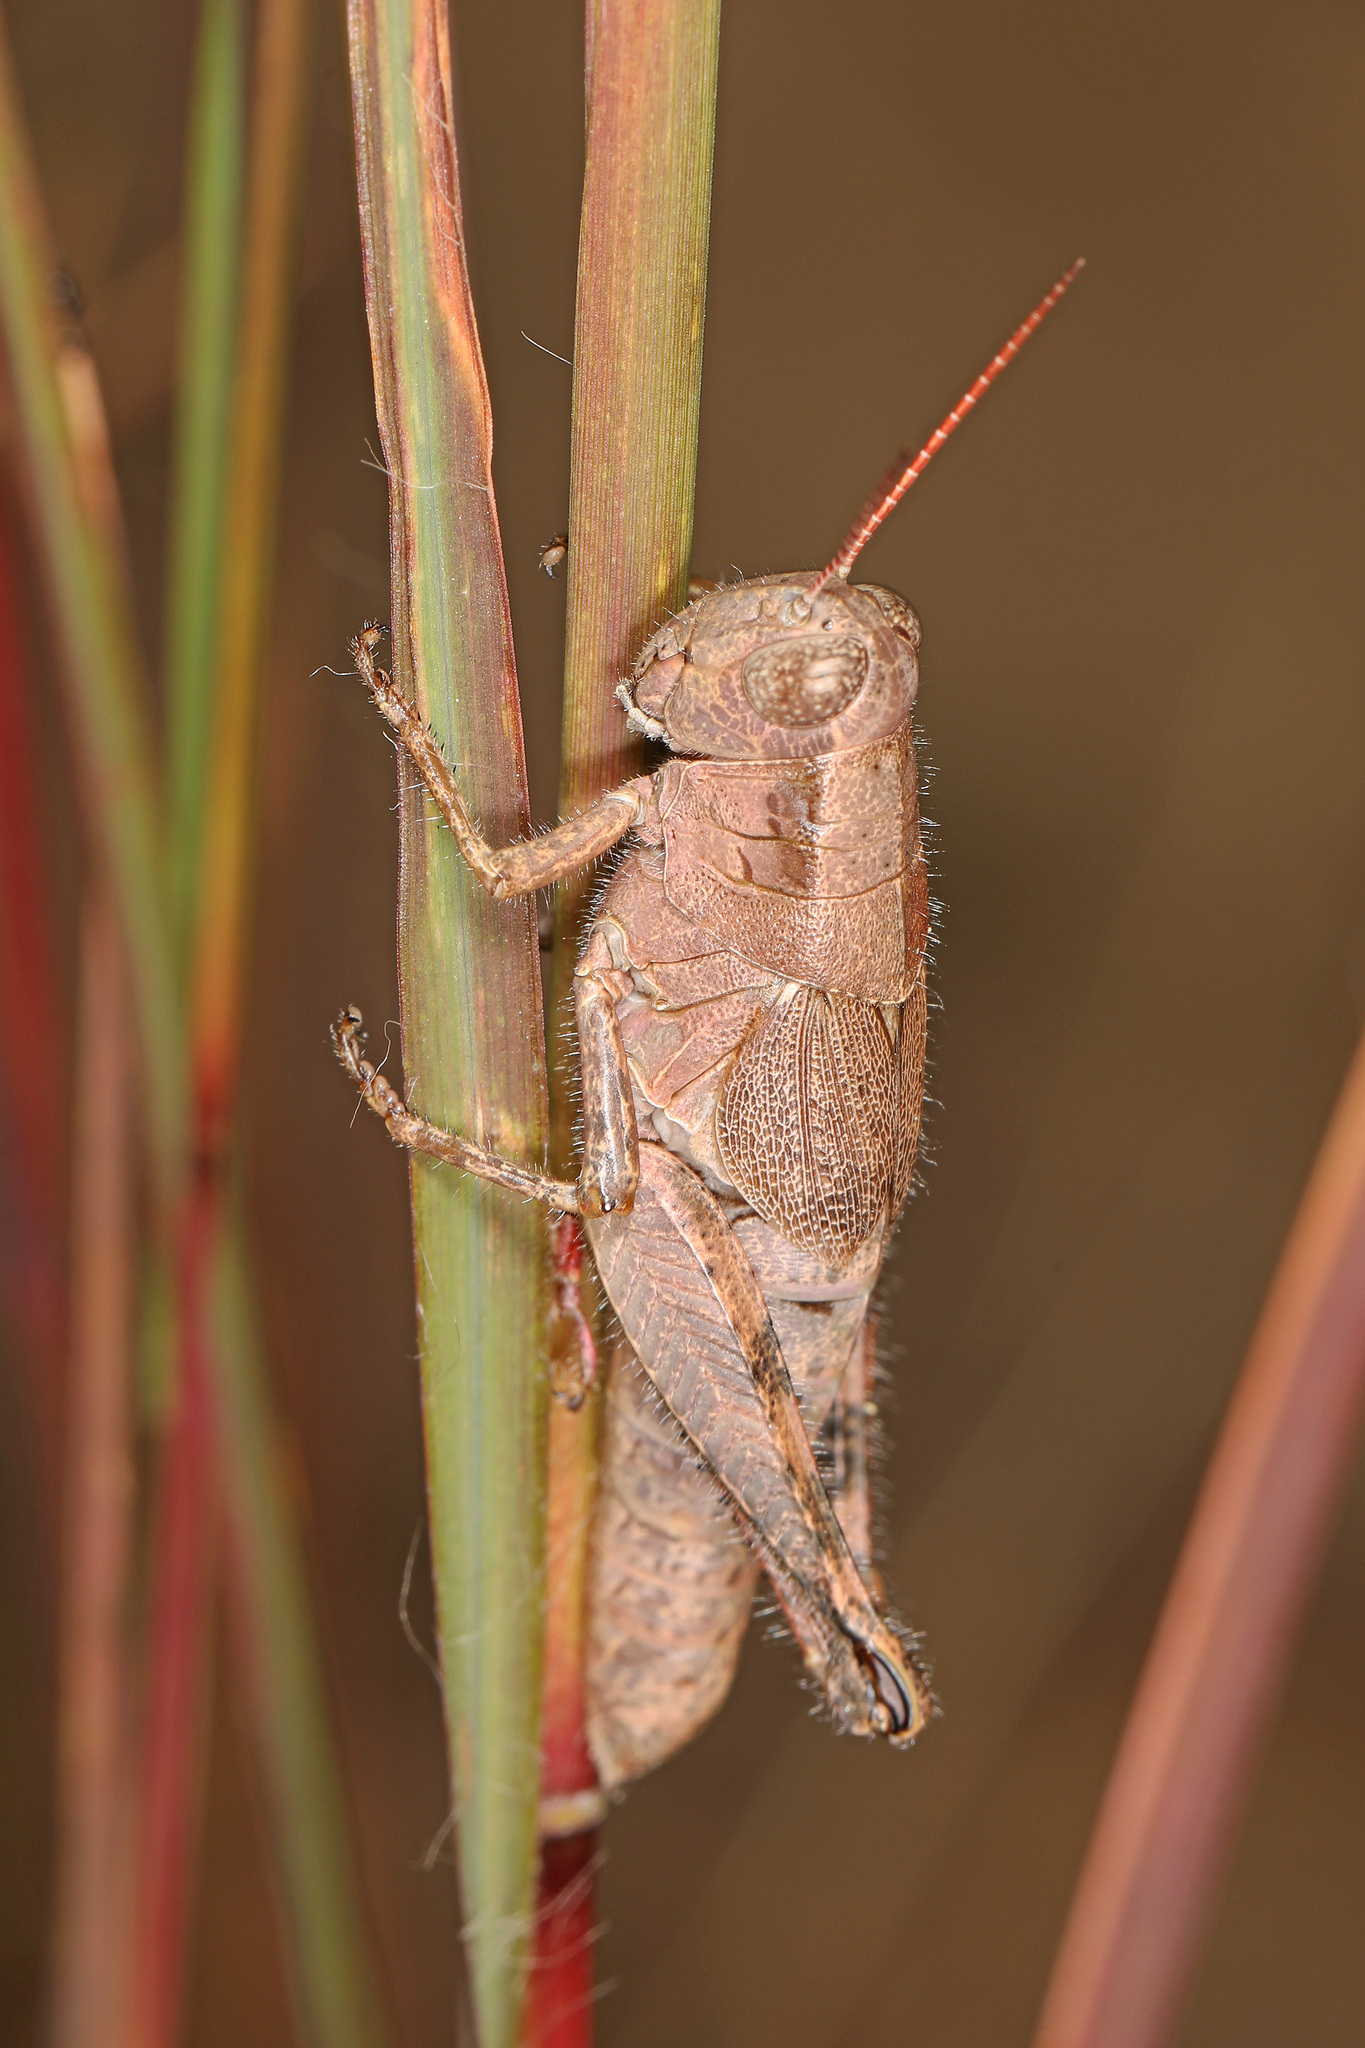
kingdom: Animalia
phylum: Arthropoda
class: Insecta
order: Orthoptera
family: Acrididae
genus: Melanoplus
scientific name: Melanoplus scudderi
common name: Scudder's short-winged locust
